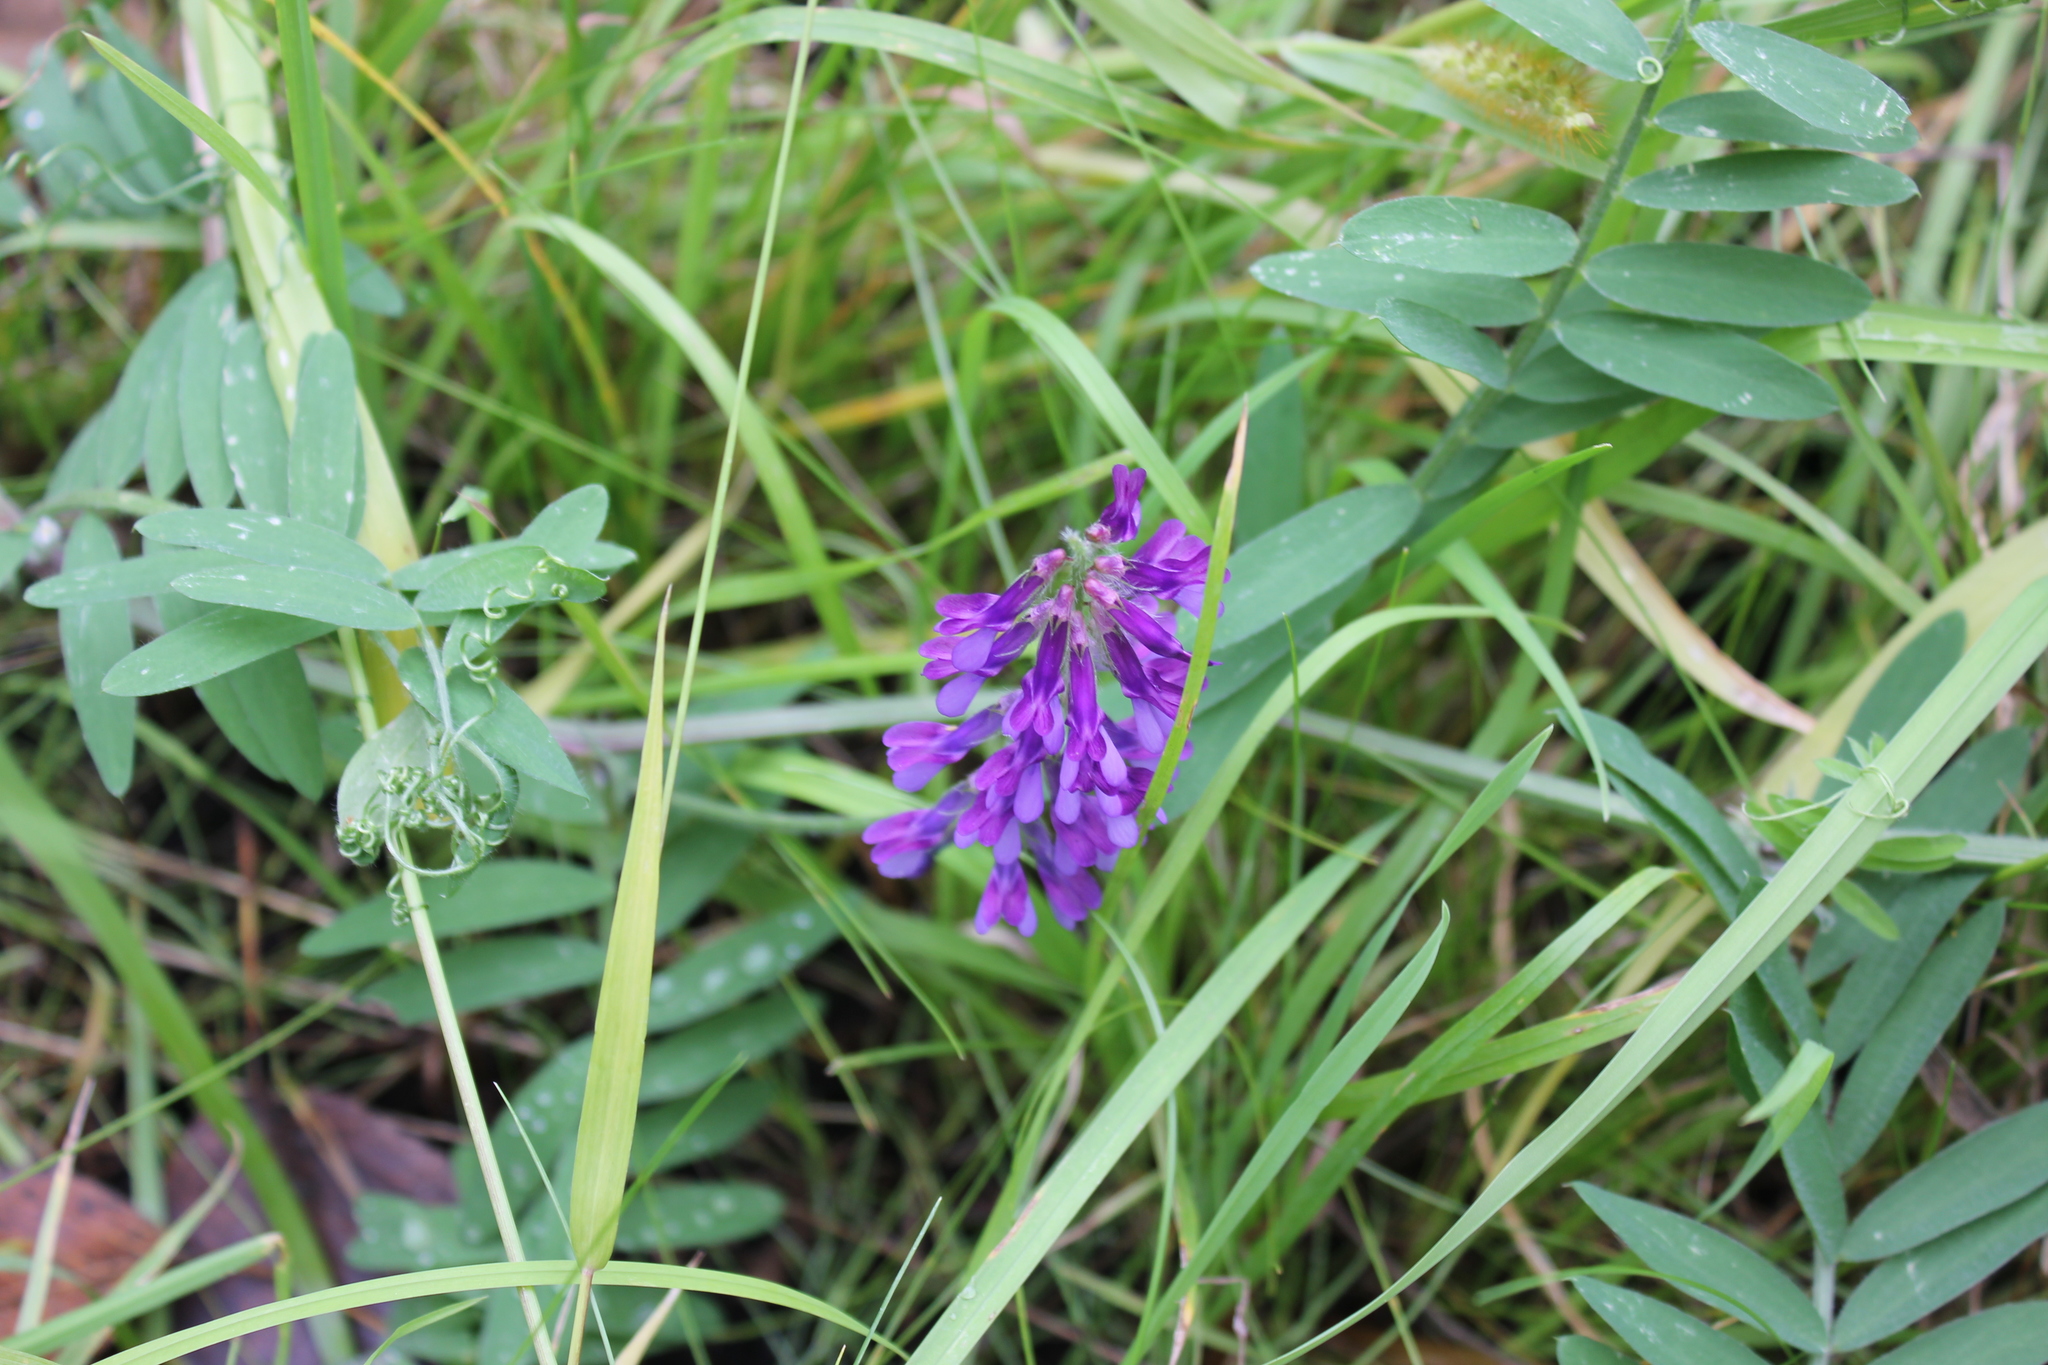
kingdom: Plantae
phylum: Tracheophyta
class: Magnoliopsida
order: Fabales
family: Fabaceae
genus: Vicia
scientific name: Vicia cracca
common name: Bird vetch
